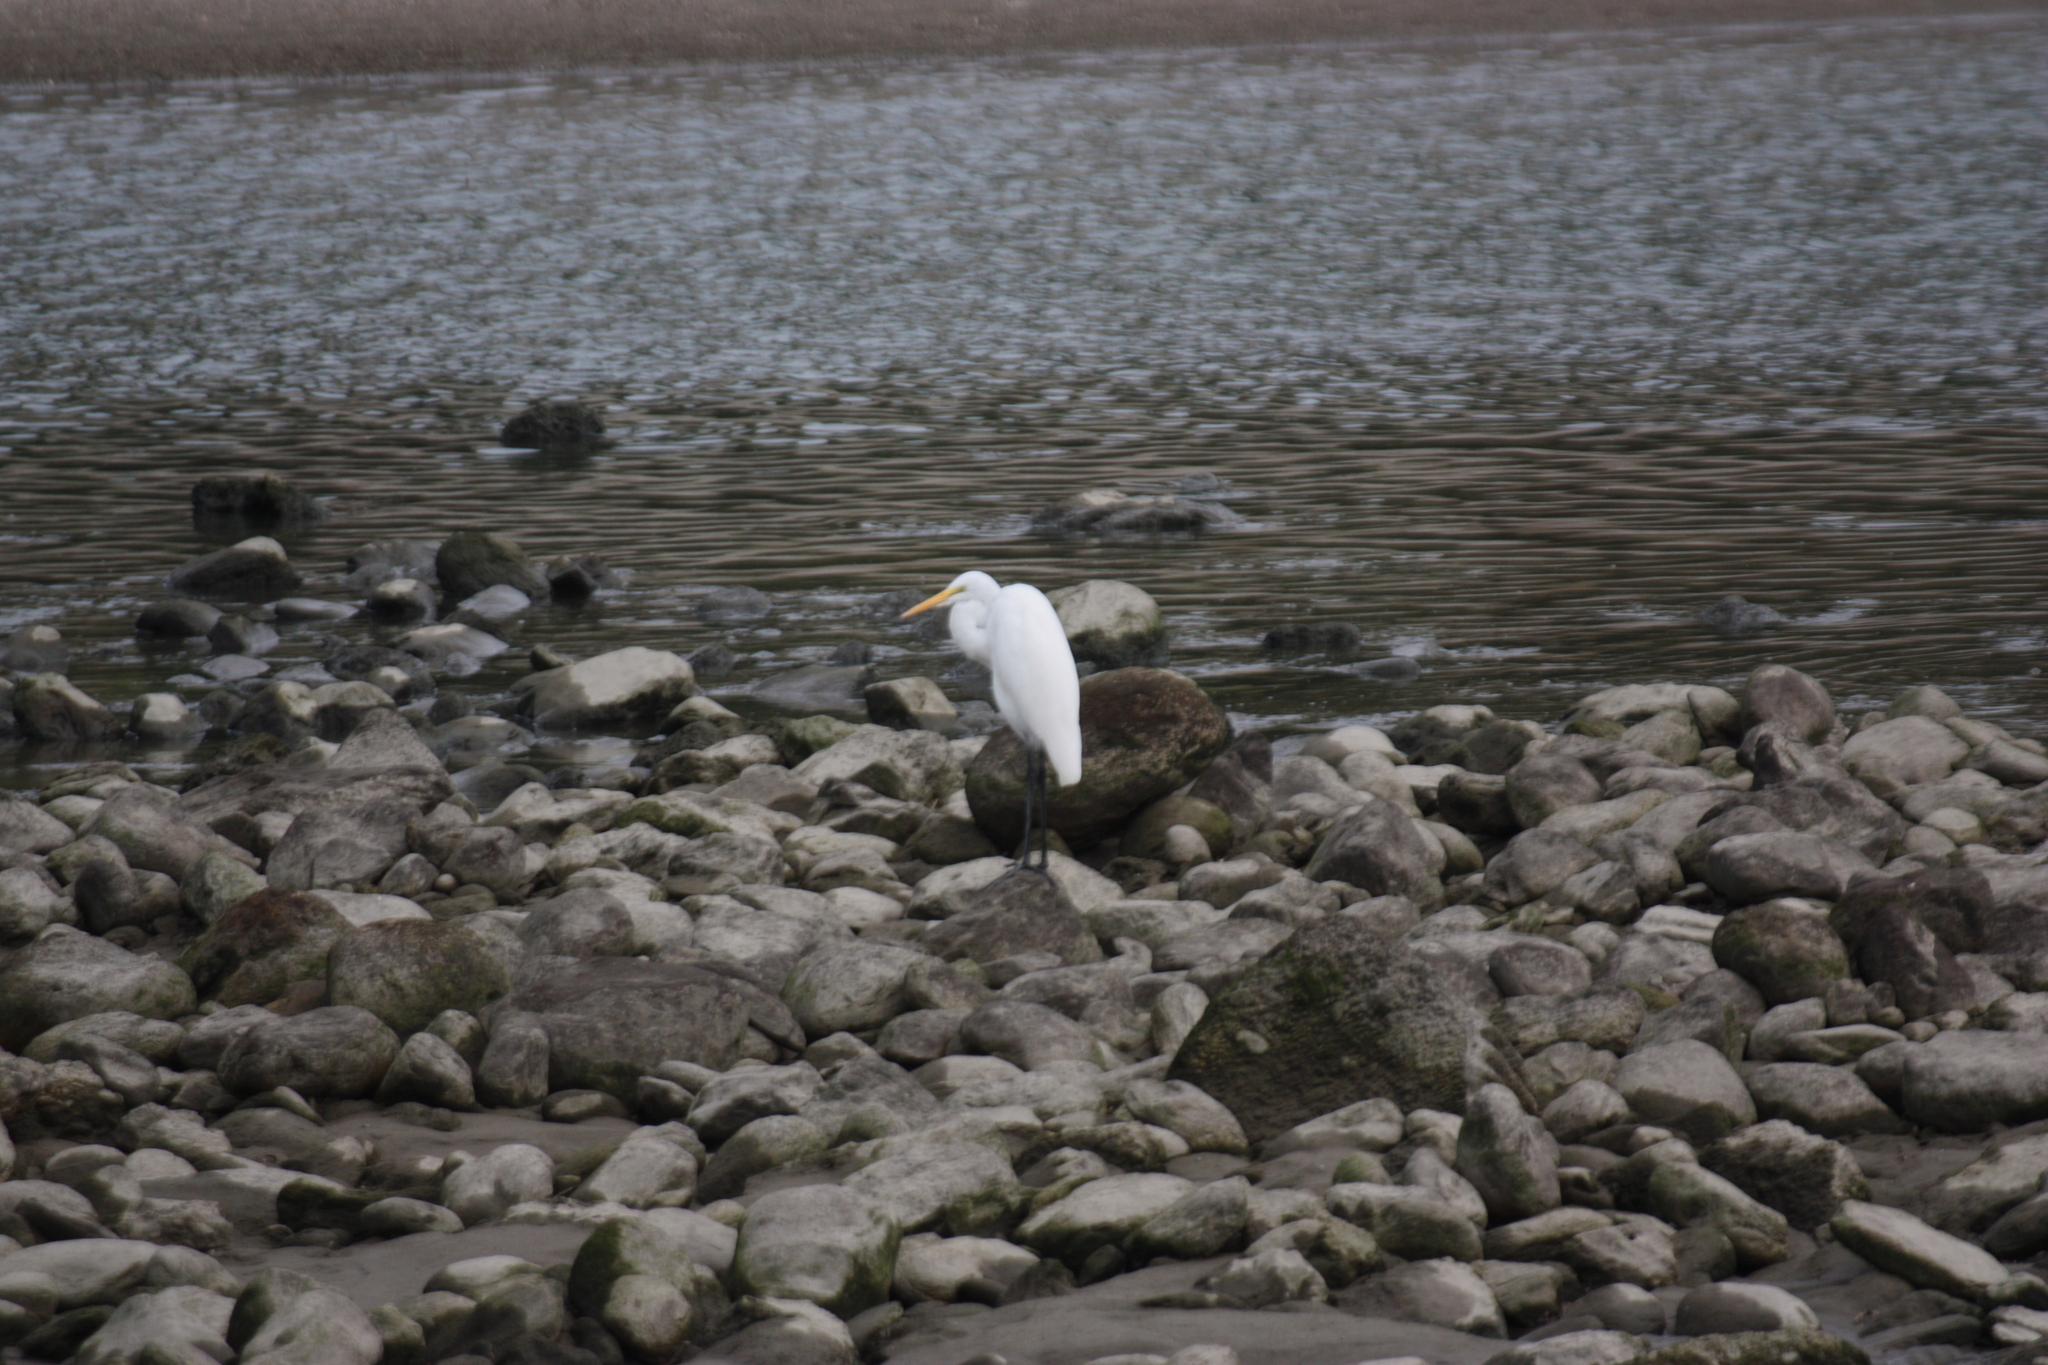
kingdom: Animalia
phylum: Chordata
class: Aves
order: Pelecaniformes
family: Ardeidae
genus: Ardea
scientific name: Ardea alba
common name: Great egret
